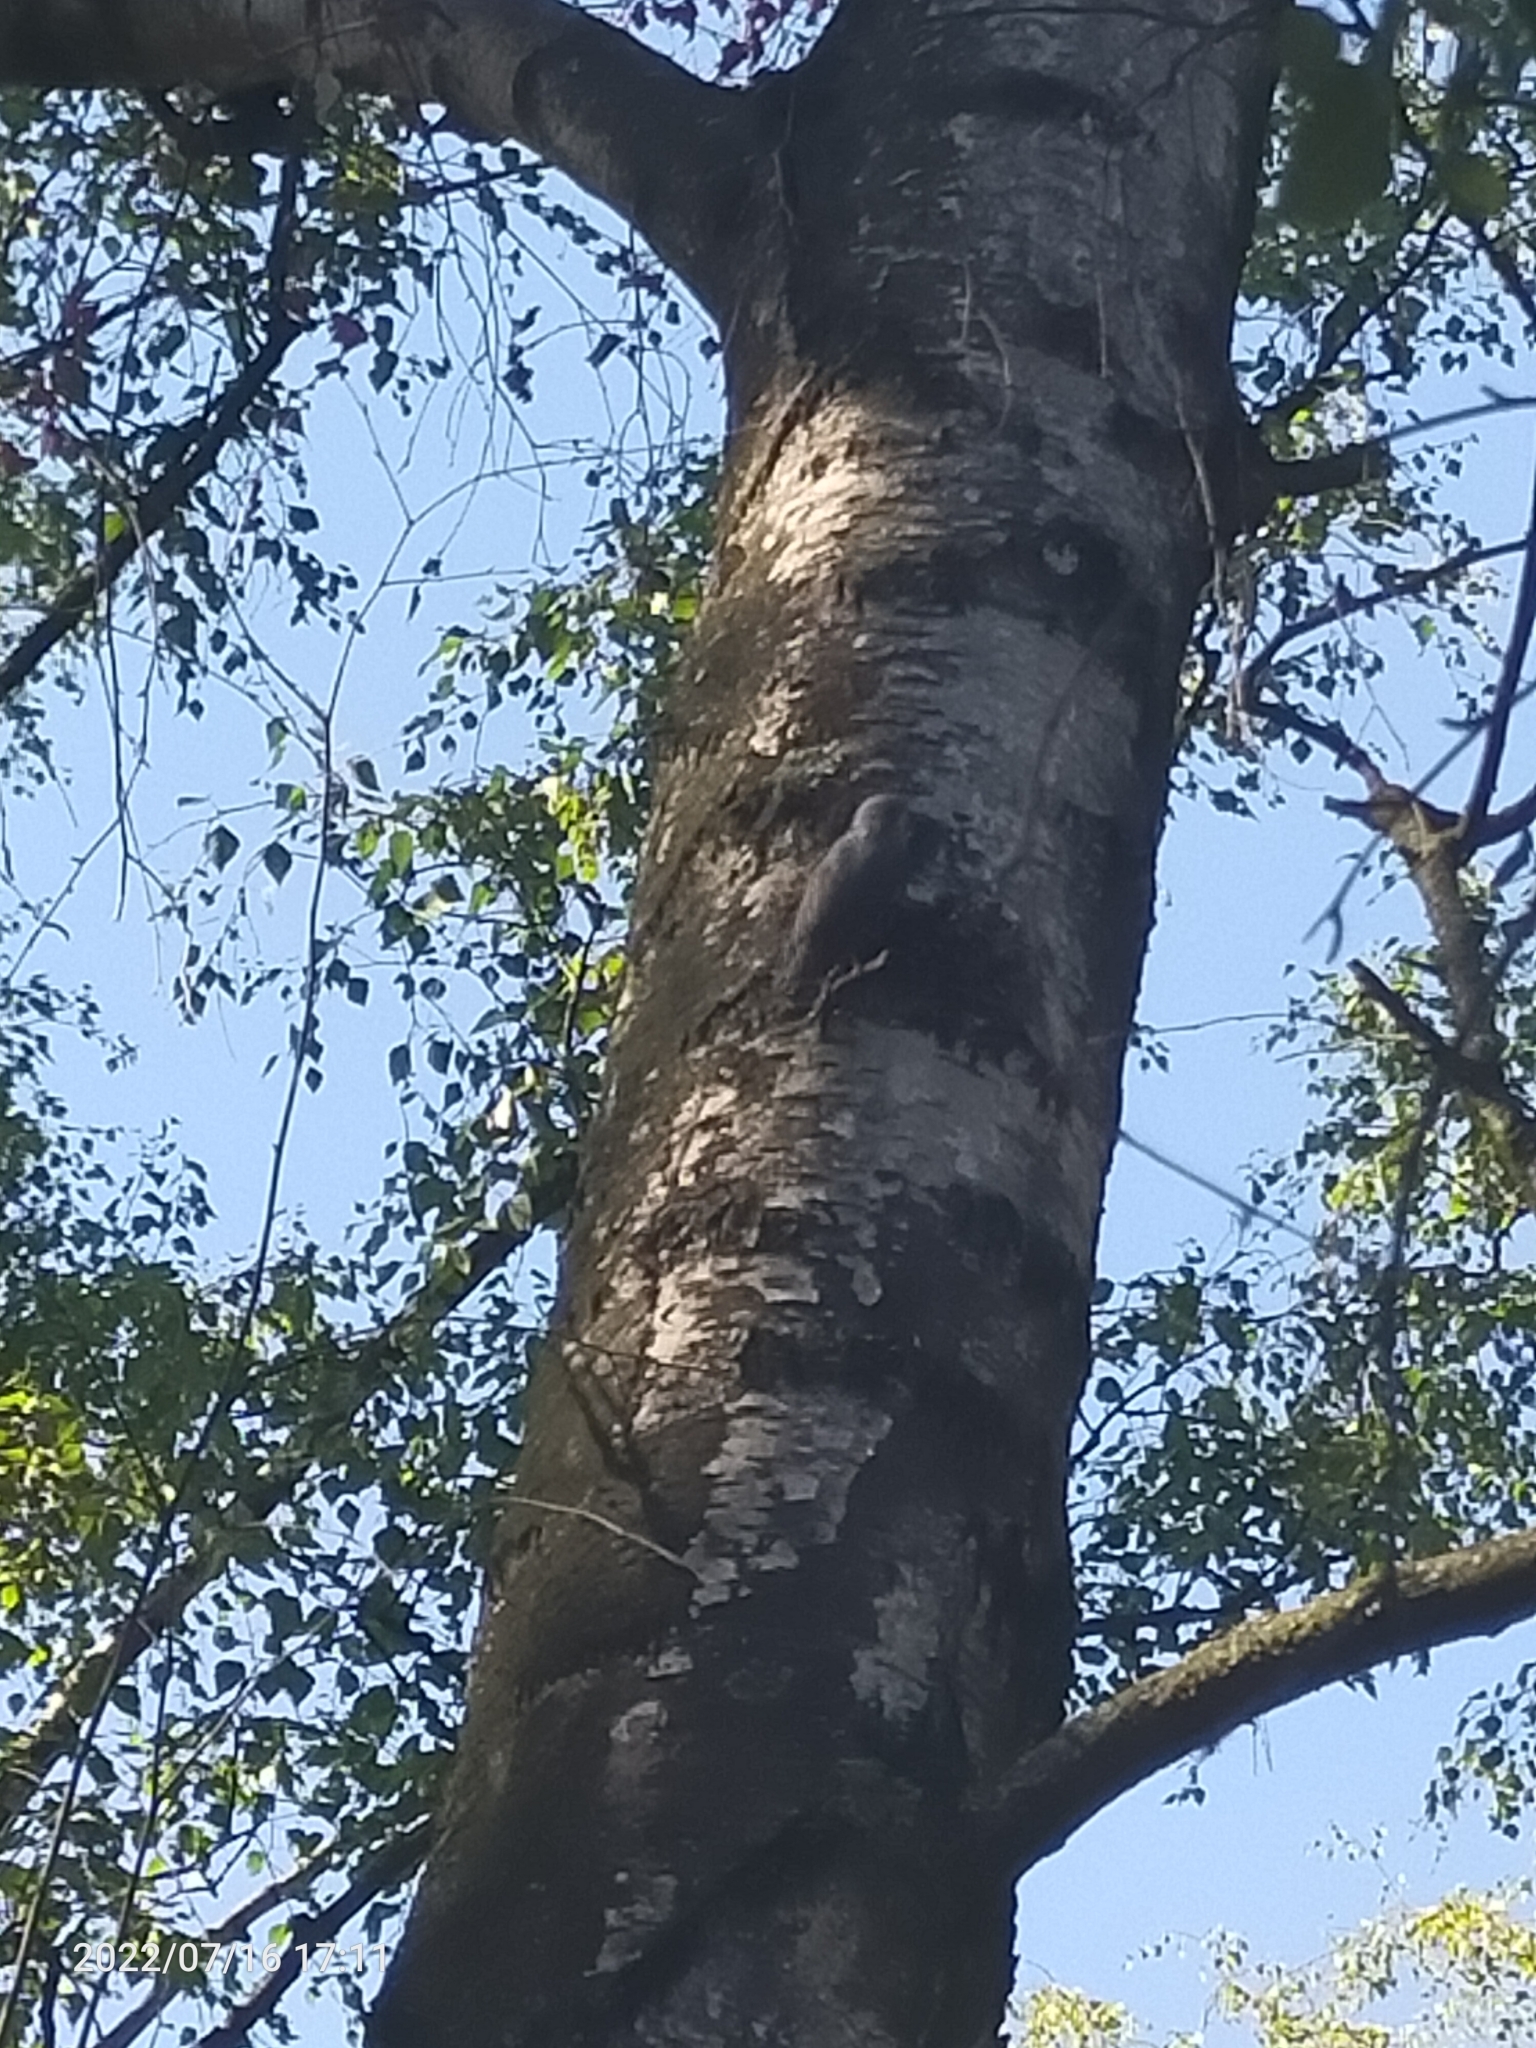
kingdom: Animalia
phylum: Chordata
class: Aves
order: Passeriformes
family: Sittidae
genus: Sitta
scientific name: Sitta europaea
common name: Eurasian nuthatch
